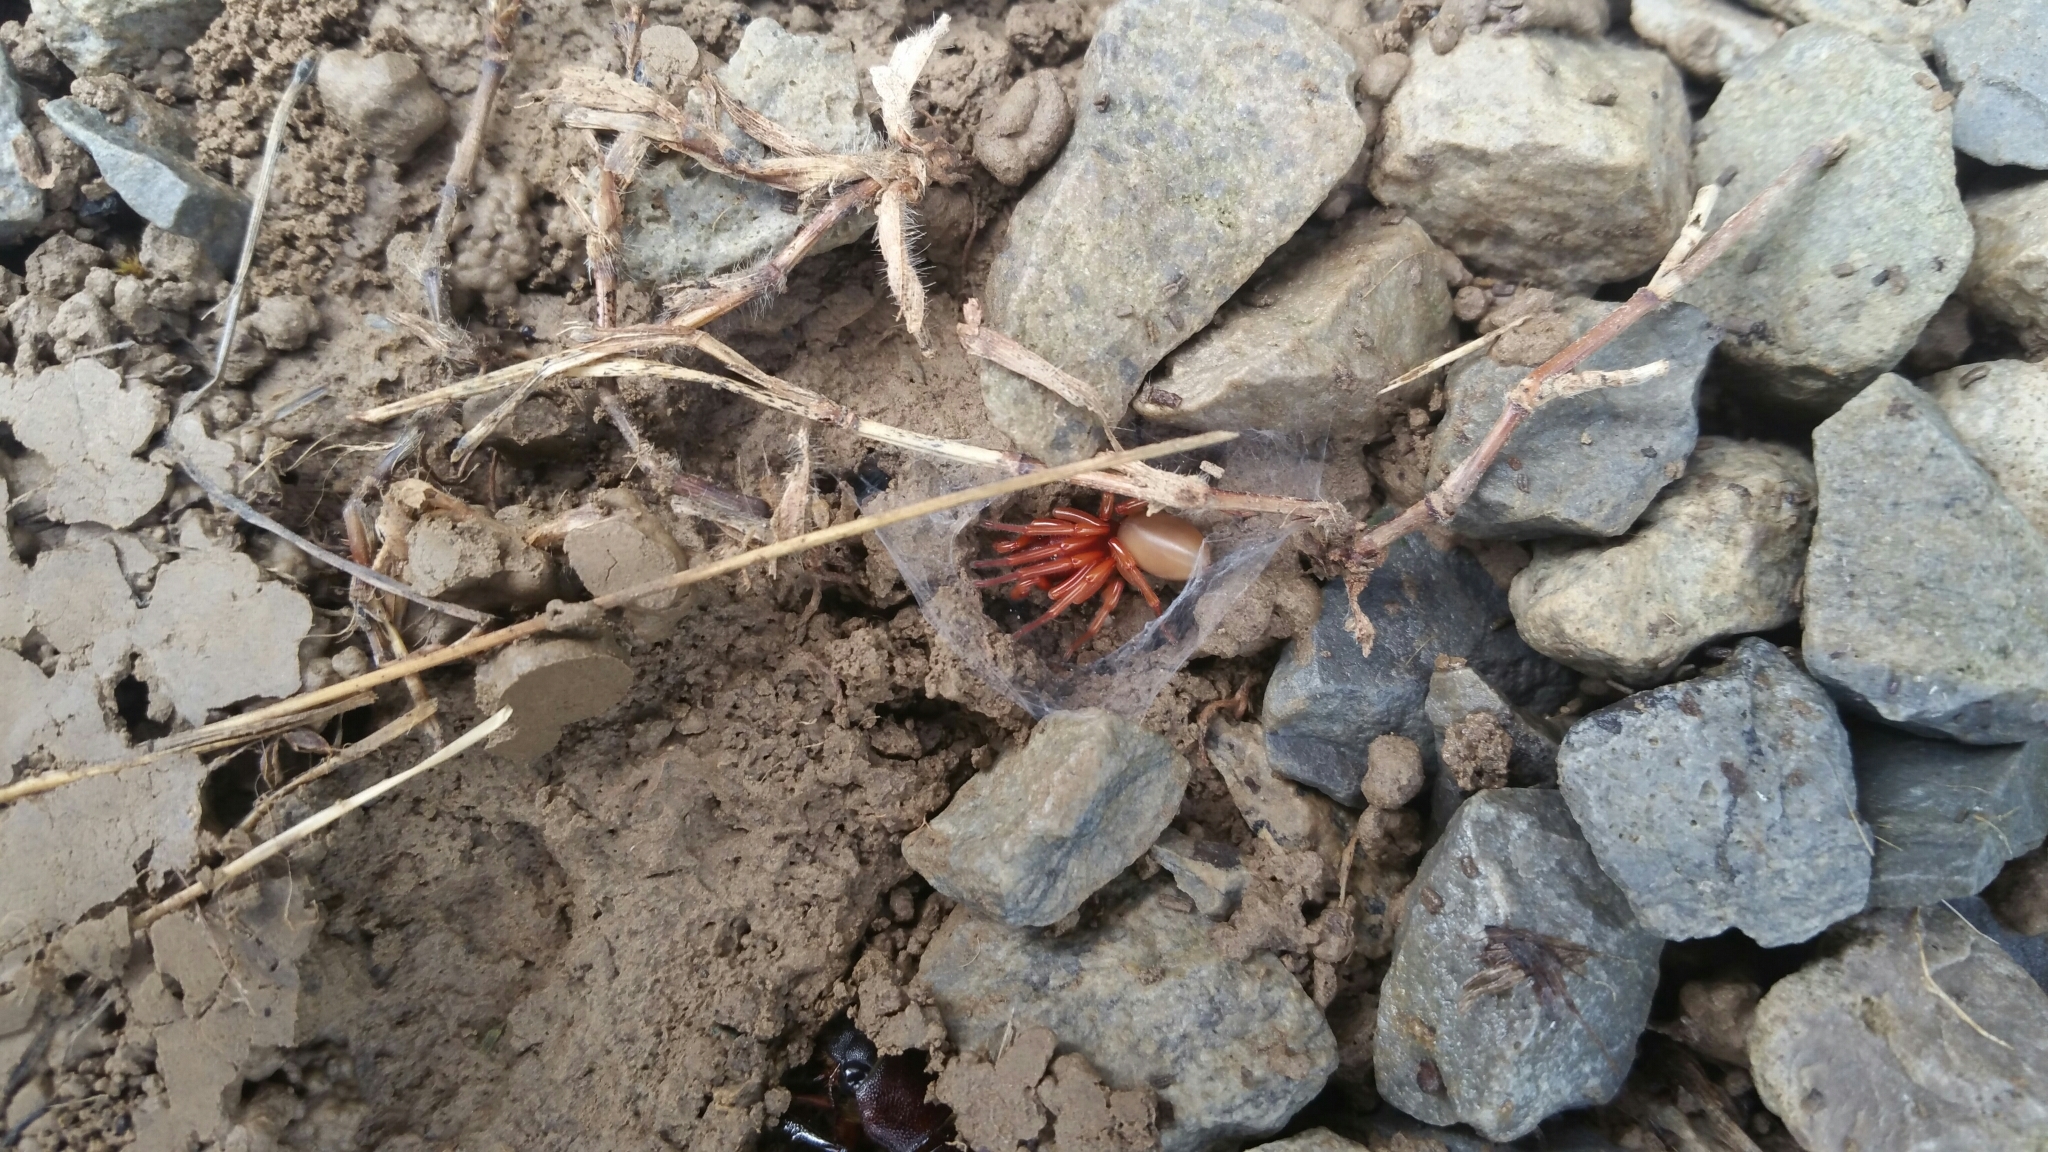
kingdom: Animalia
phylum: Arthropoda
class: Arachnida
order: Araneae
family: Dysderidae
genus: Dysdera
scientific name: Dysdera crocata
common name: Woodlouse spider
